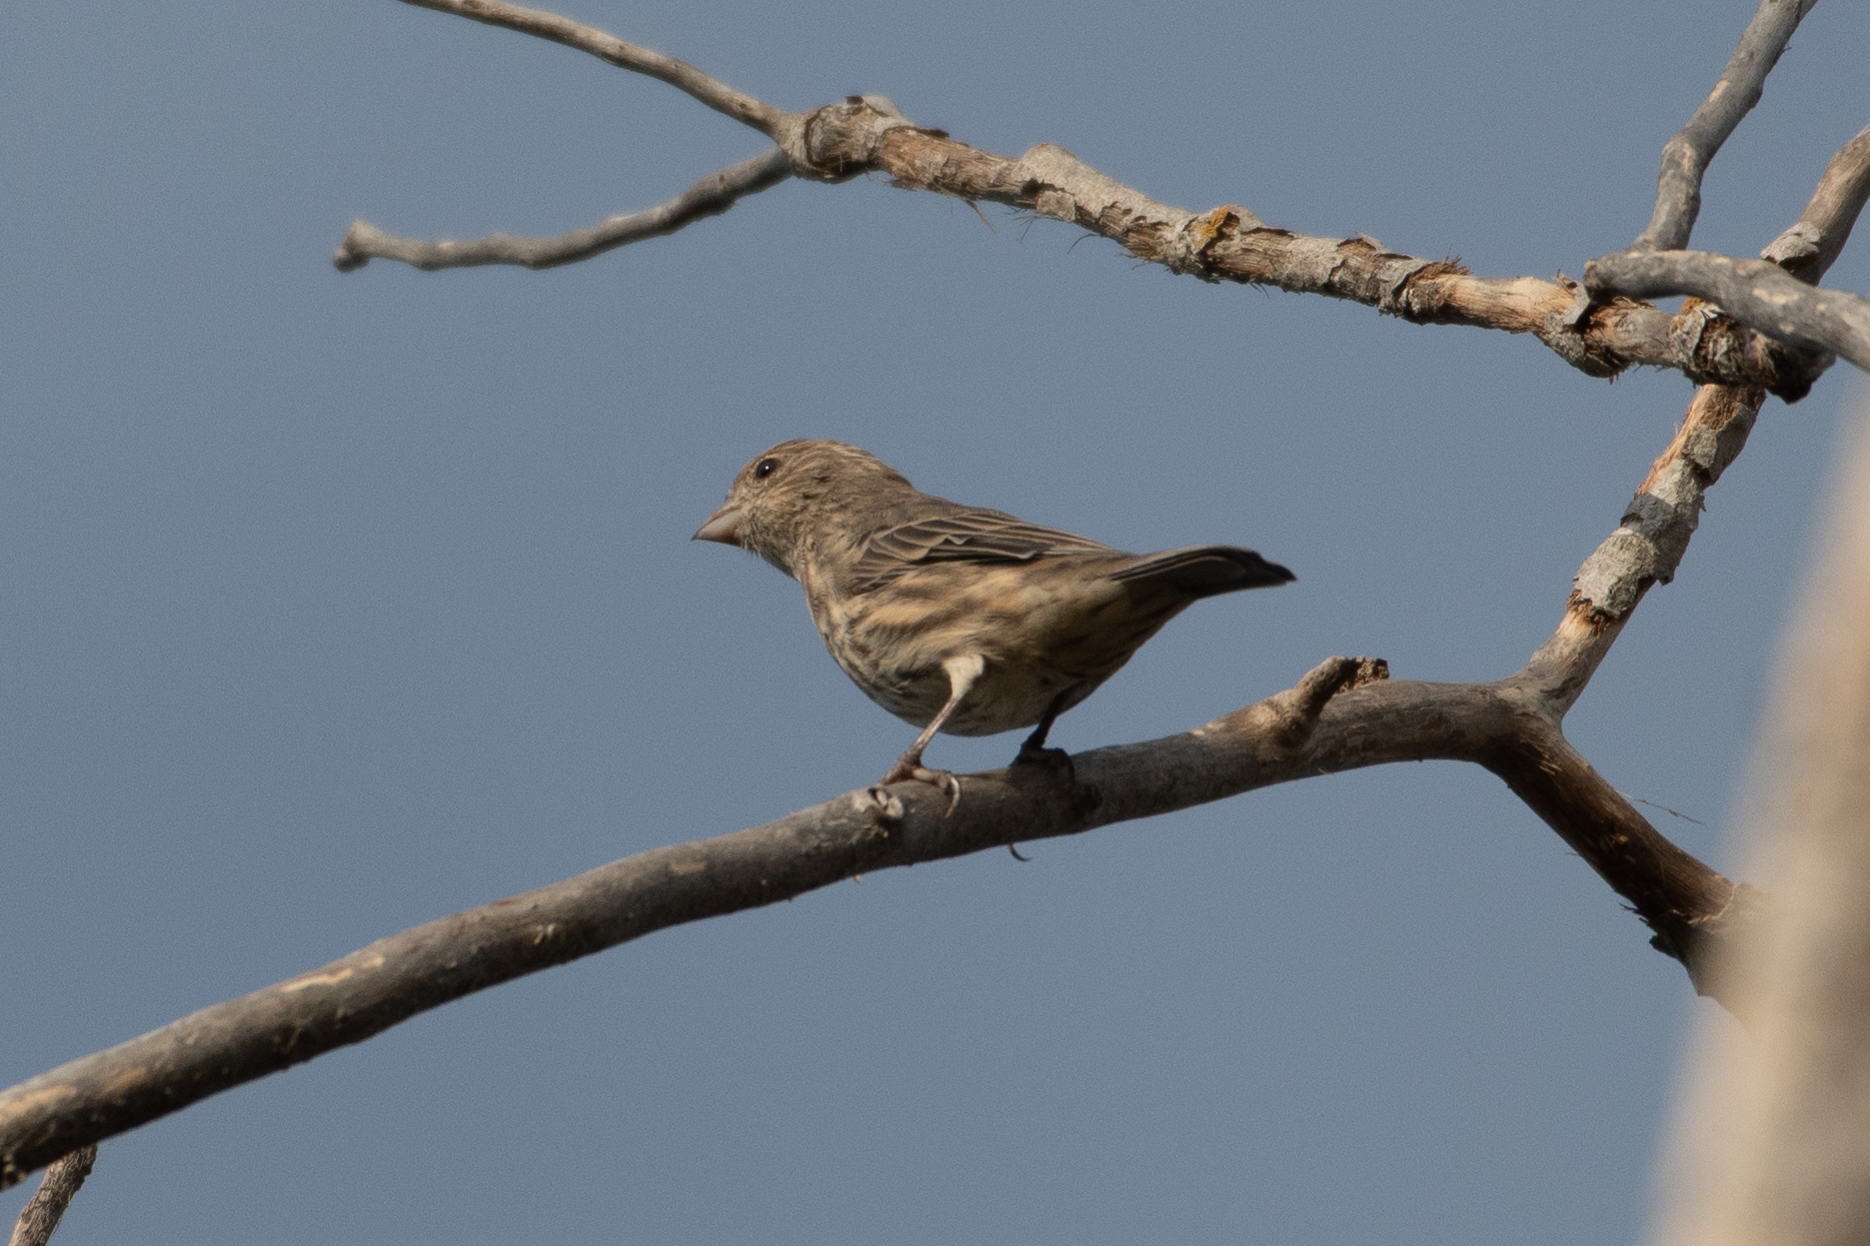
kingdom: Animalia
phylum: Chordata
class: Aves
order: Passeriformes
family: Fringillidae
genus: Haemorhous
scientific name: Haemorhous mexicanus
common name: House finch
